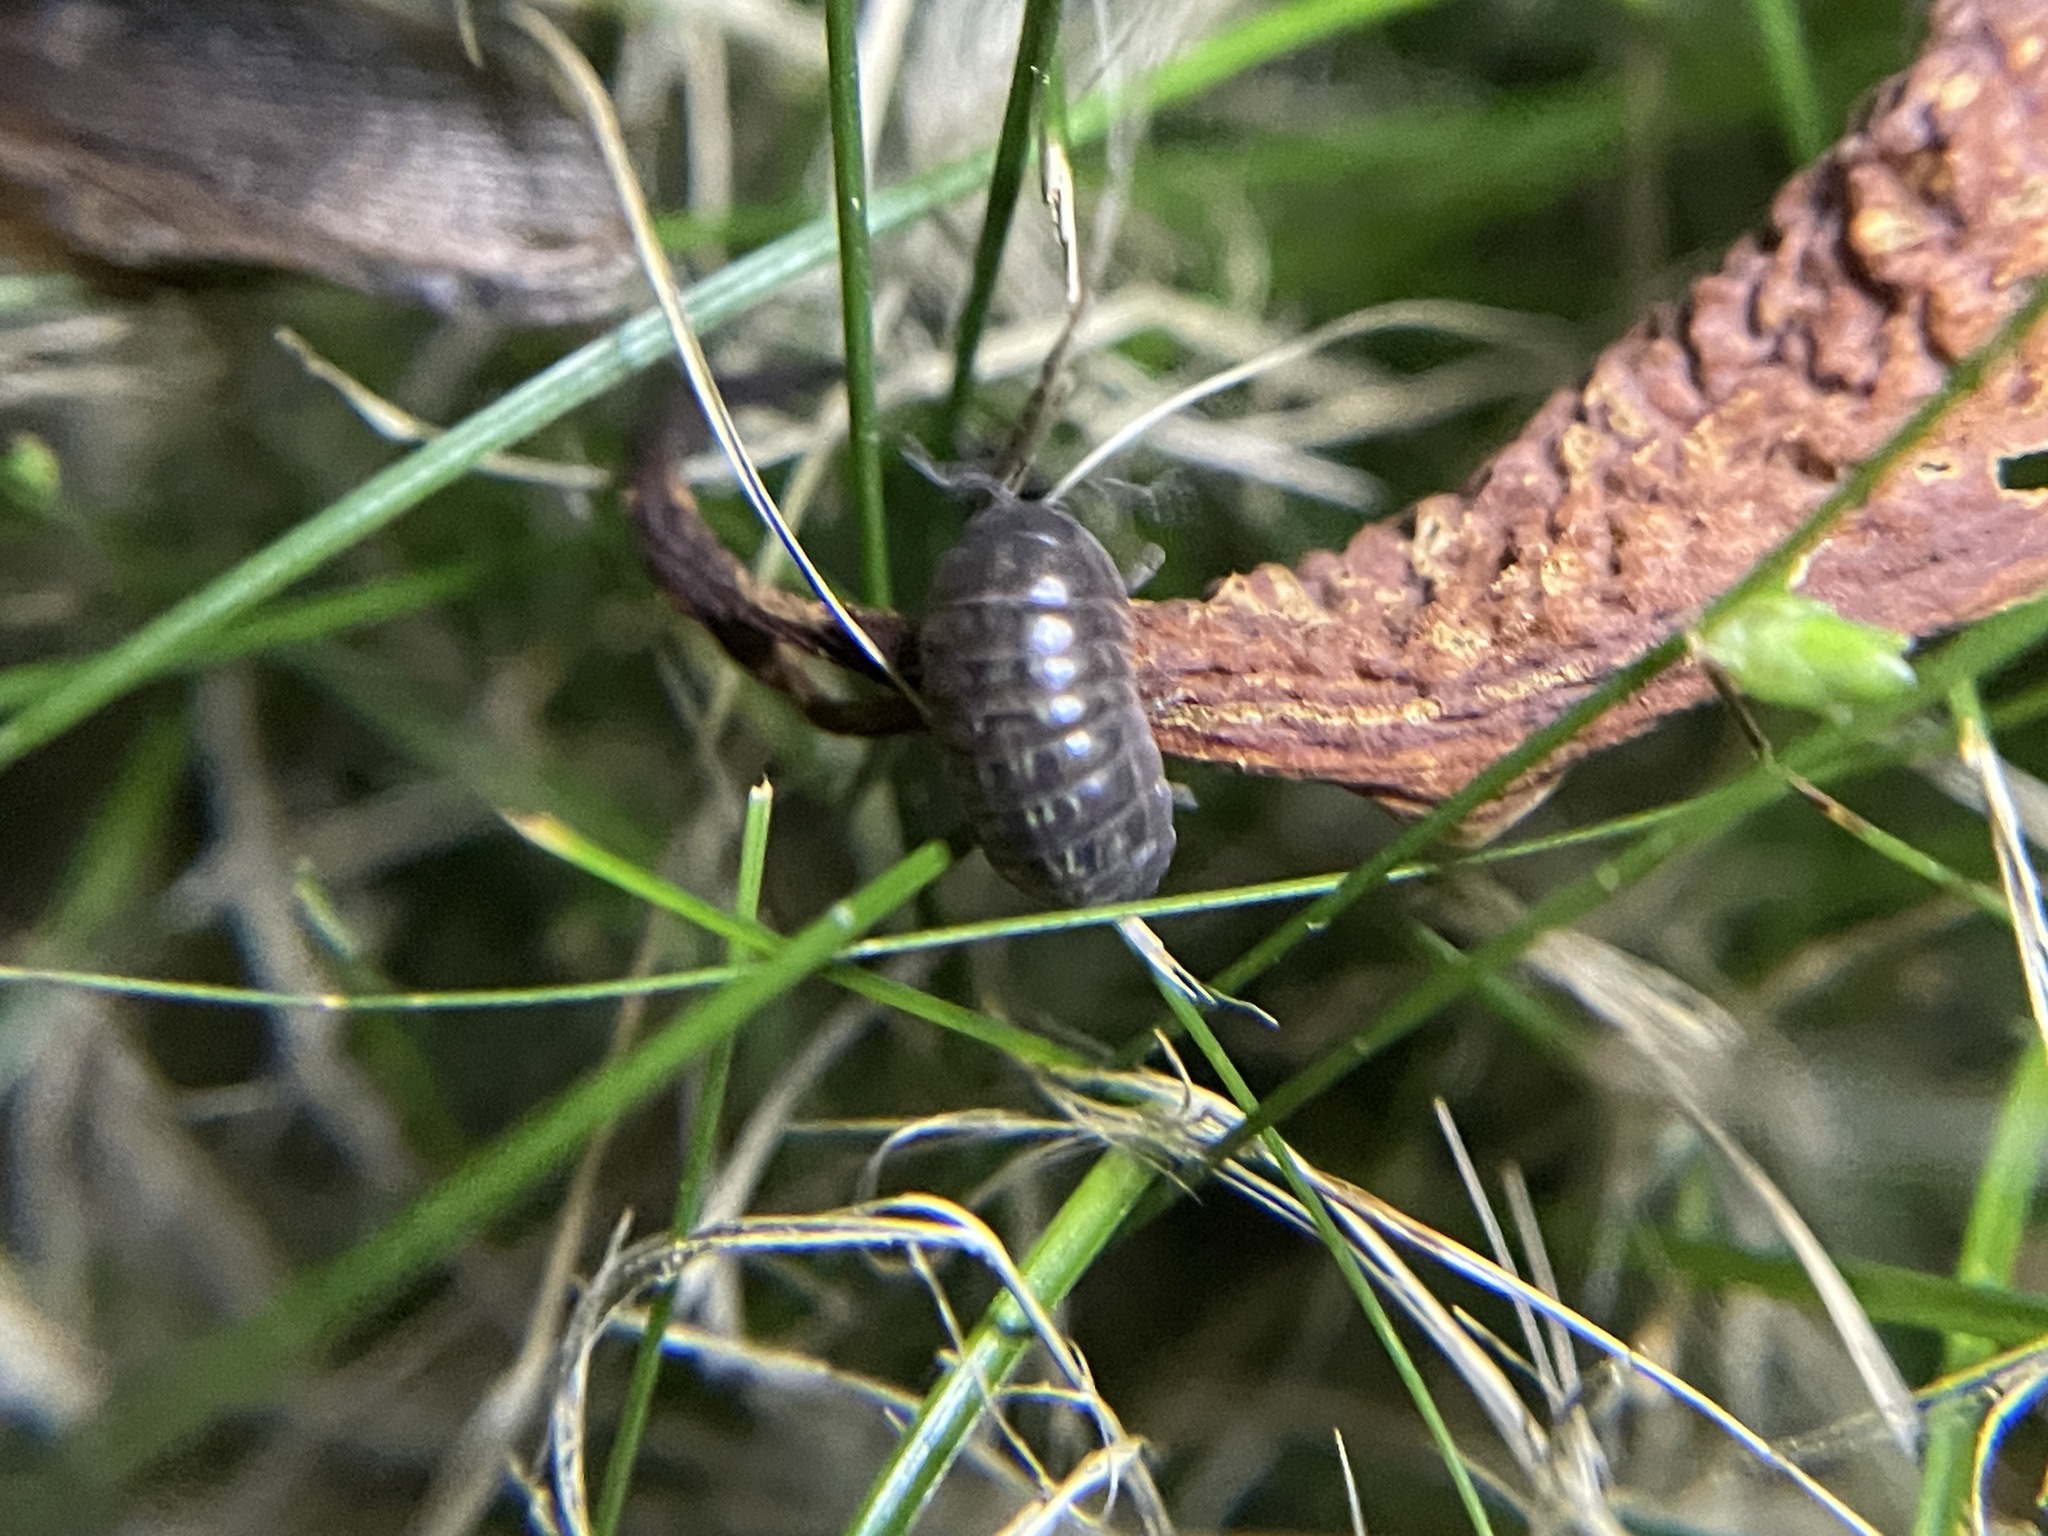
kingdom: Animalia
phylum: Arthropoda
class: Malacostraca
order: Isopoda
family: Armadillidiidae
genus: Armadillidium
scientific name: Armadillidium vulgare
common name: Common pill woodlouse
